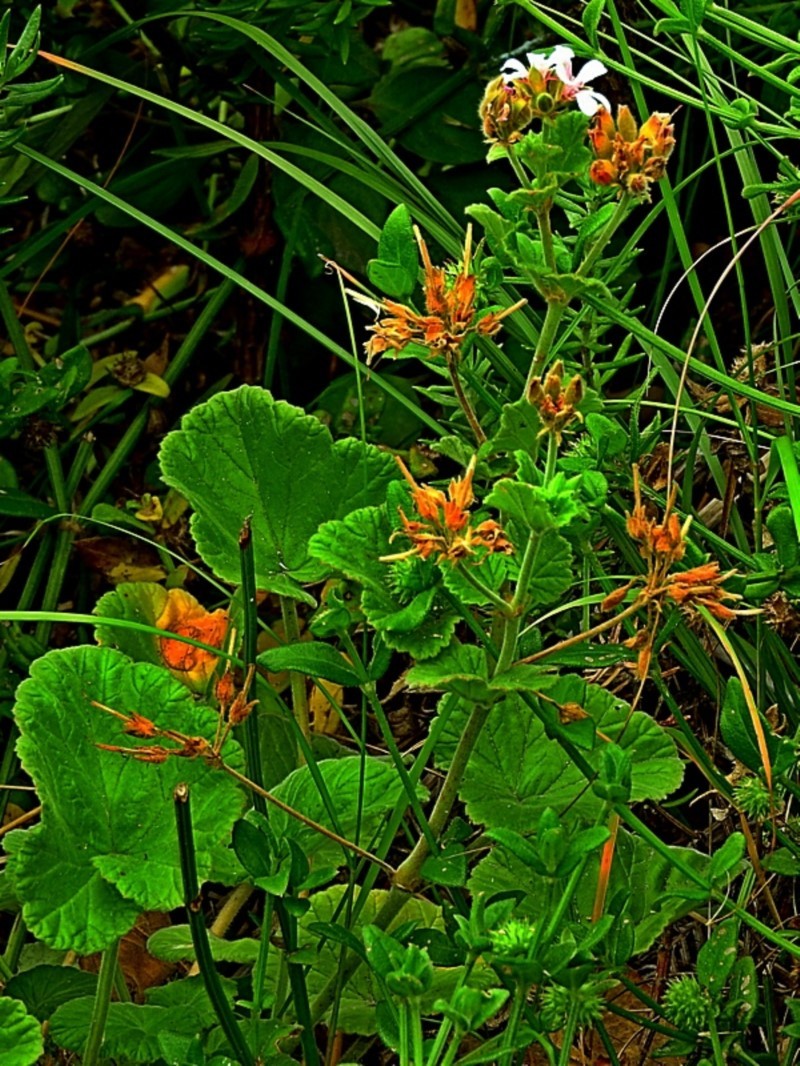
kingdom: Plantae
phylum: Tracheophyta
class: Magnoliopsida
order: Geraniales
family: Geraniaceae
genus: Pelargonium
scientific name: Pelargonium australe
